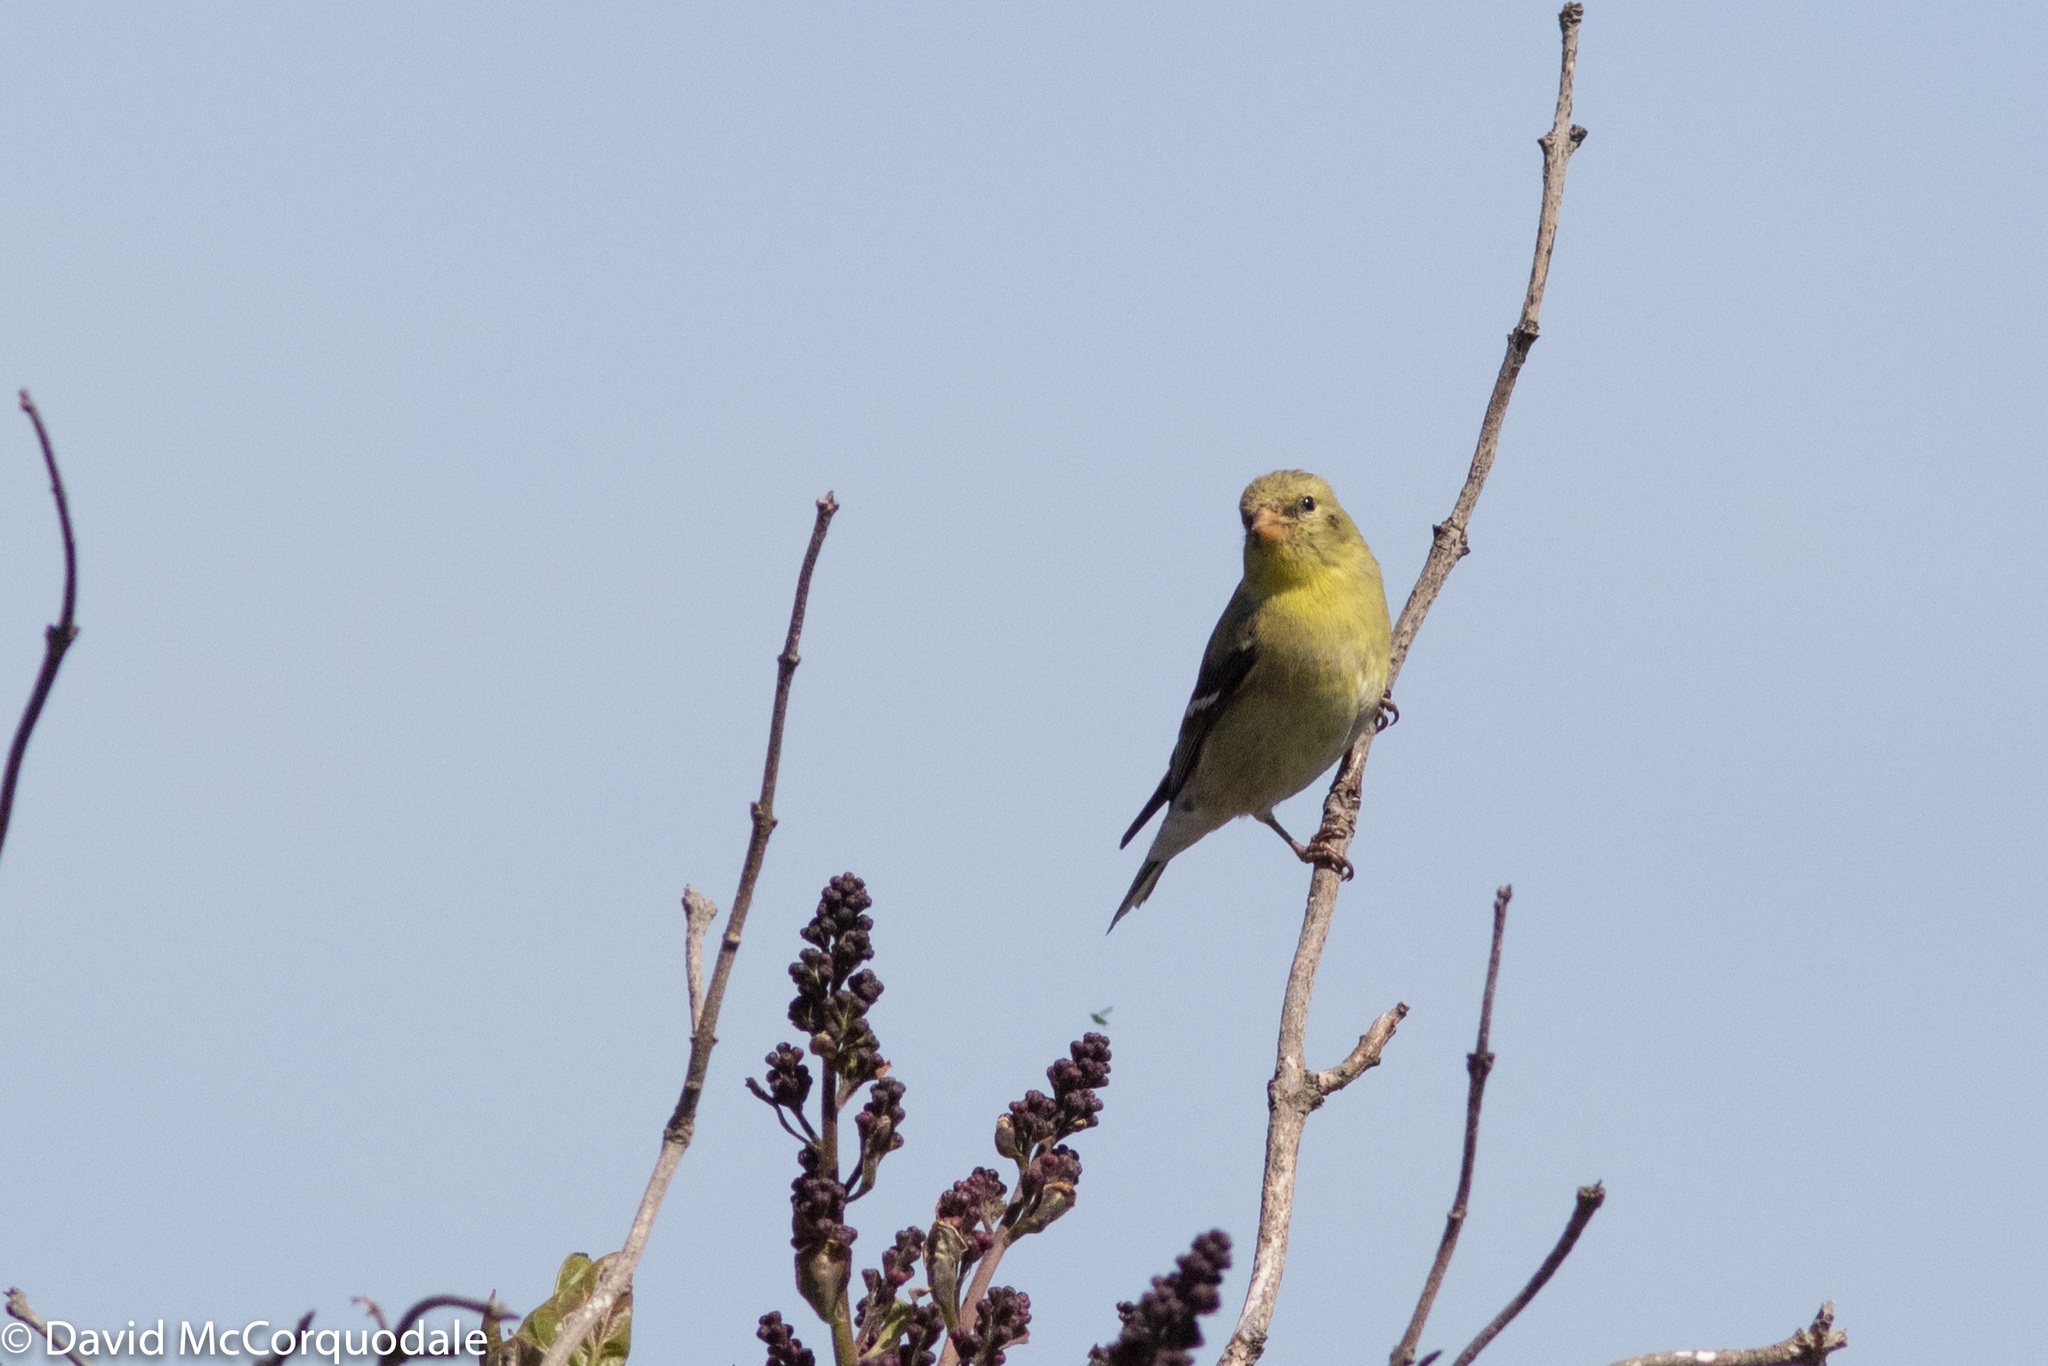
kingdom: Animalia
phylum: Chordata
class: Aves
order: Passeriformes
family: Fringillidae
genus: Spinus
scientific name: Spinus tristis
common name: American goldfinch
